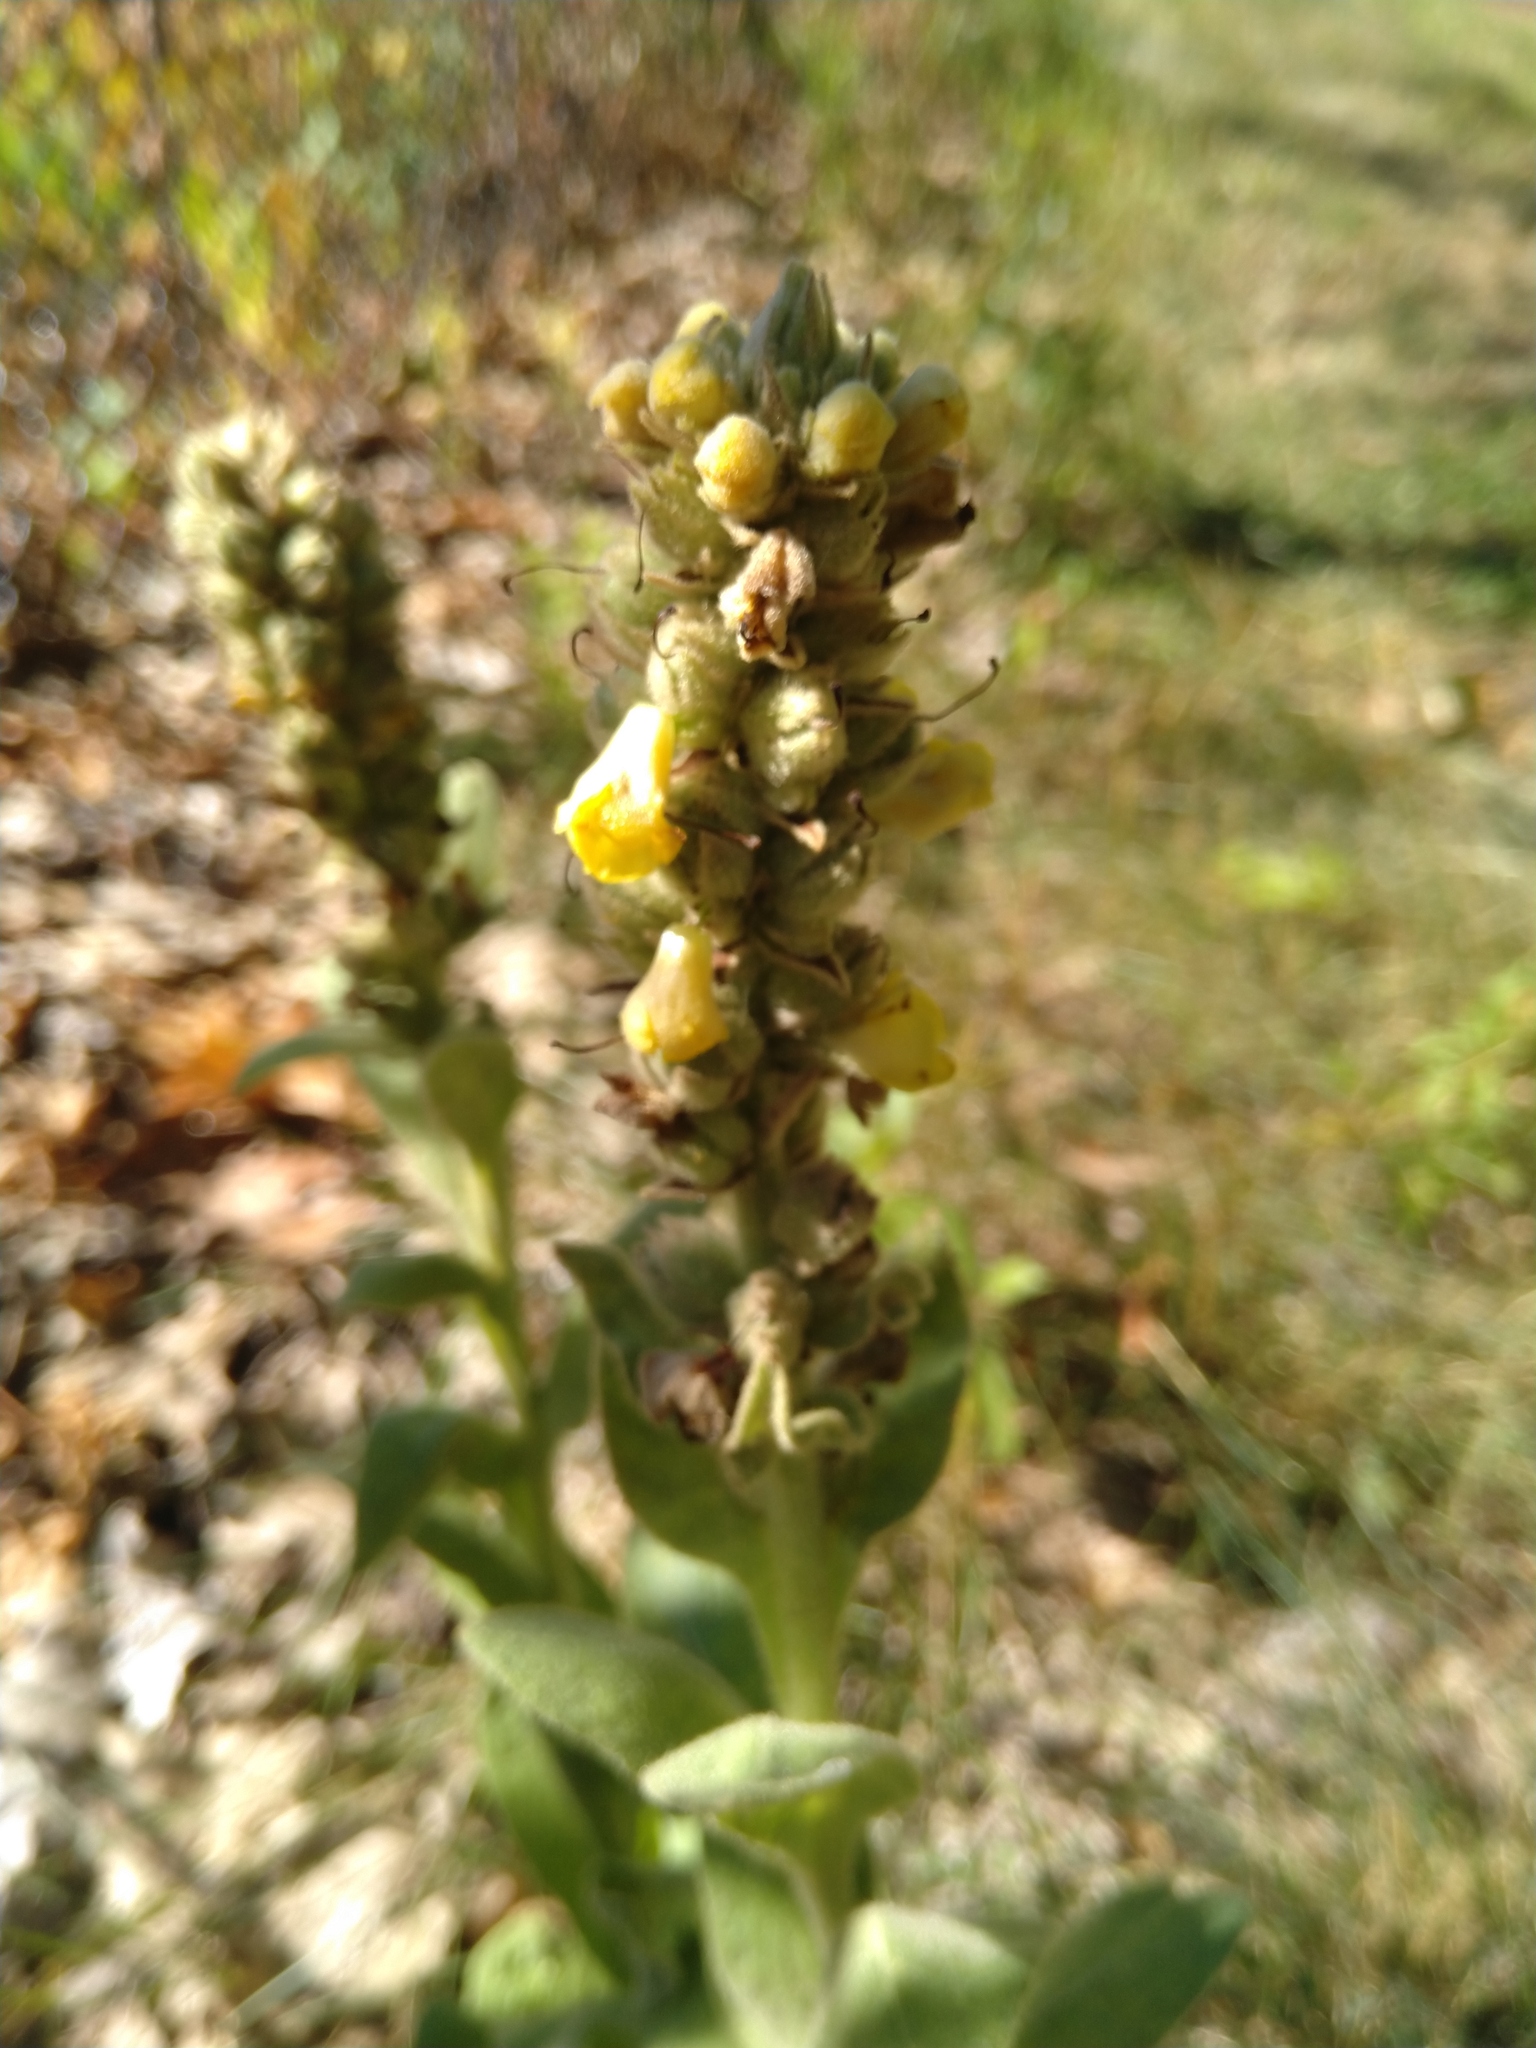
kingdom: Plantae
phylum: Tracheophyta
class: Magnoliopsida
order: Lamiales
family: Scrophulariaceae
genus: Verbascum
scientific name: Verbascum thapsus
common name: Common mullein
